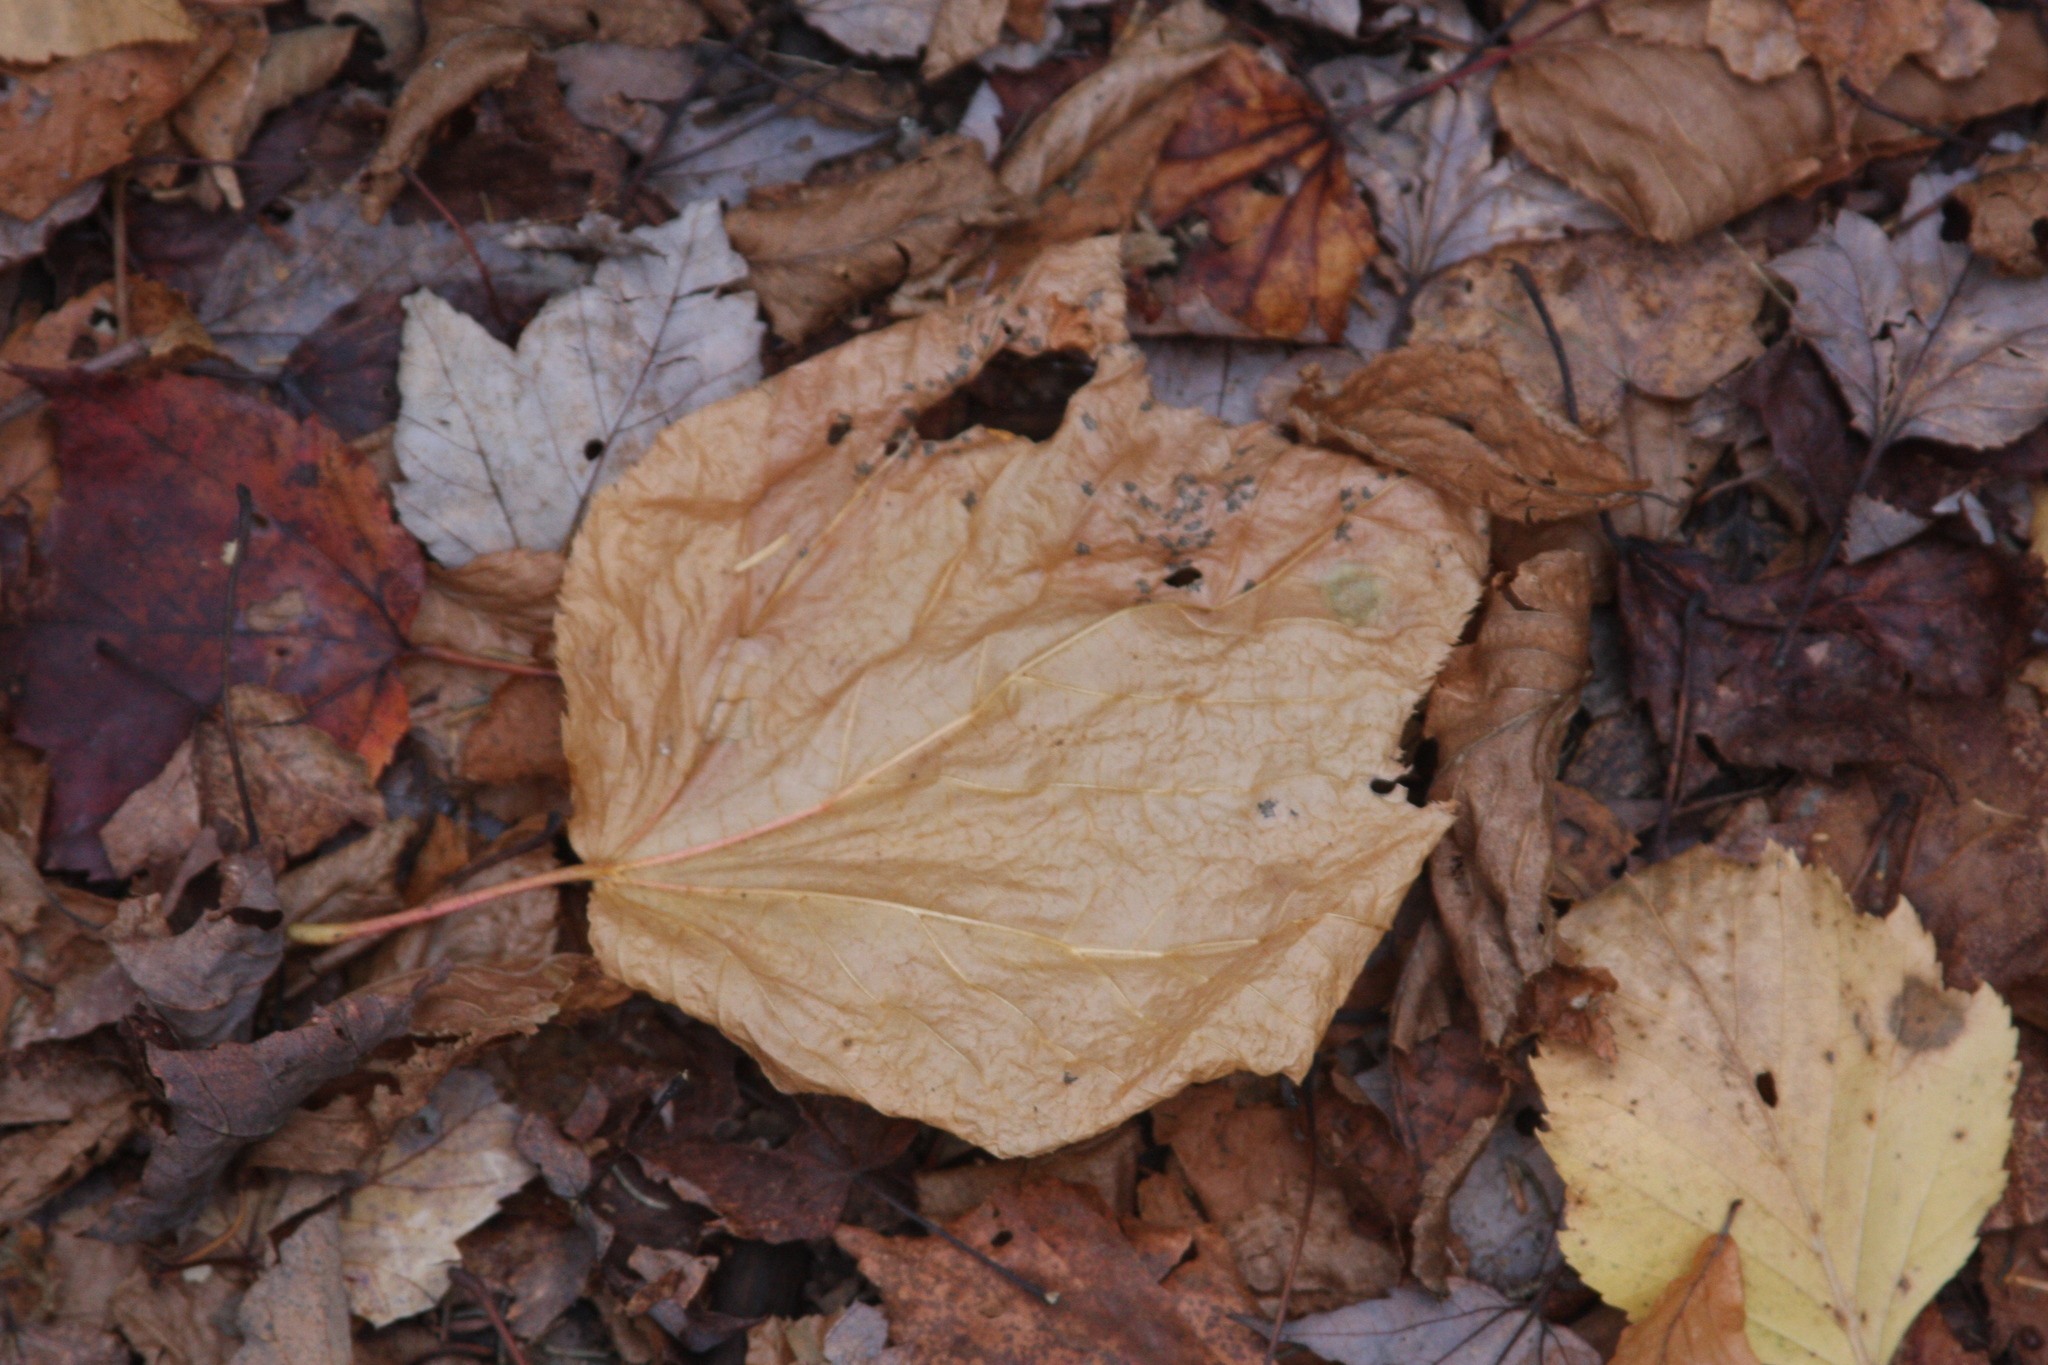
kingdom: Plantae
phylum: Tracheophyta
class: Magnoliopsida
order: Sapindales
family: Sapindaceae
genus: Acer
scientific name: Acer pensylvanicum
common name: Moosewood
